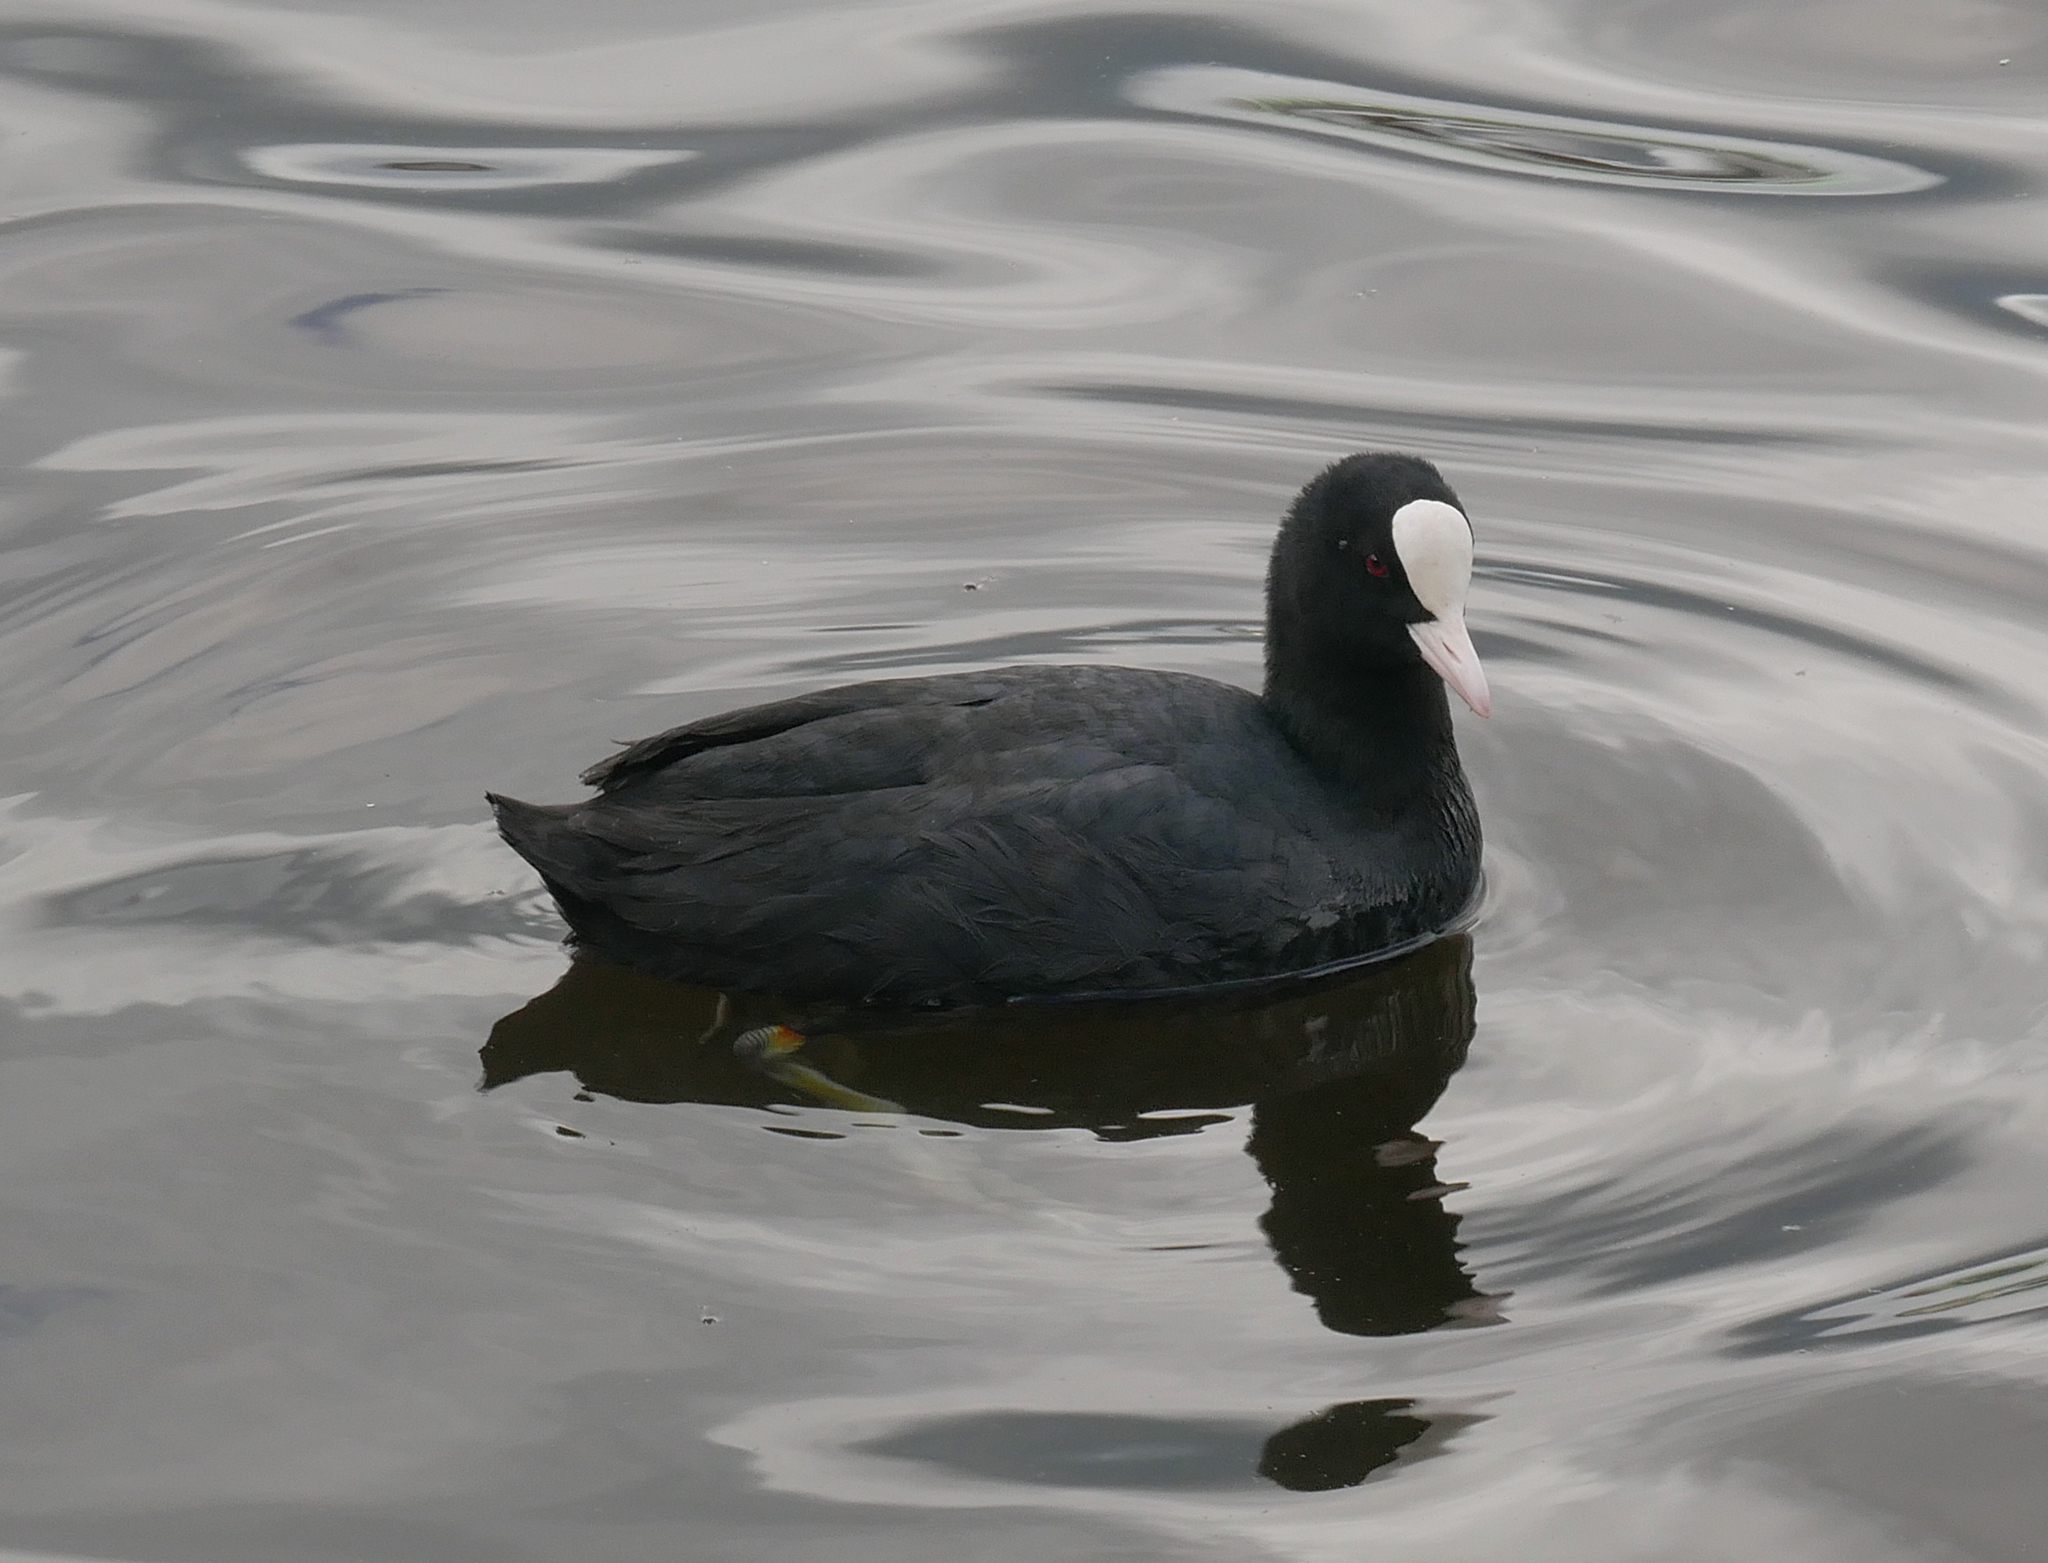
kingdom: Animalia
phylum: Chordata
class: Aves
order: Gruiformes
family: Rallidae
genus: Fulica
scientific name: Fulica atra
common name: Eurasian coot
